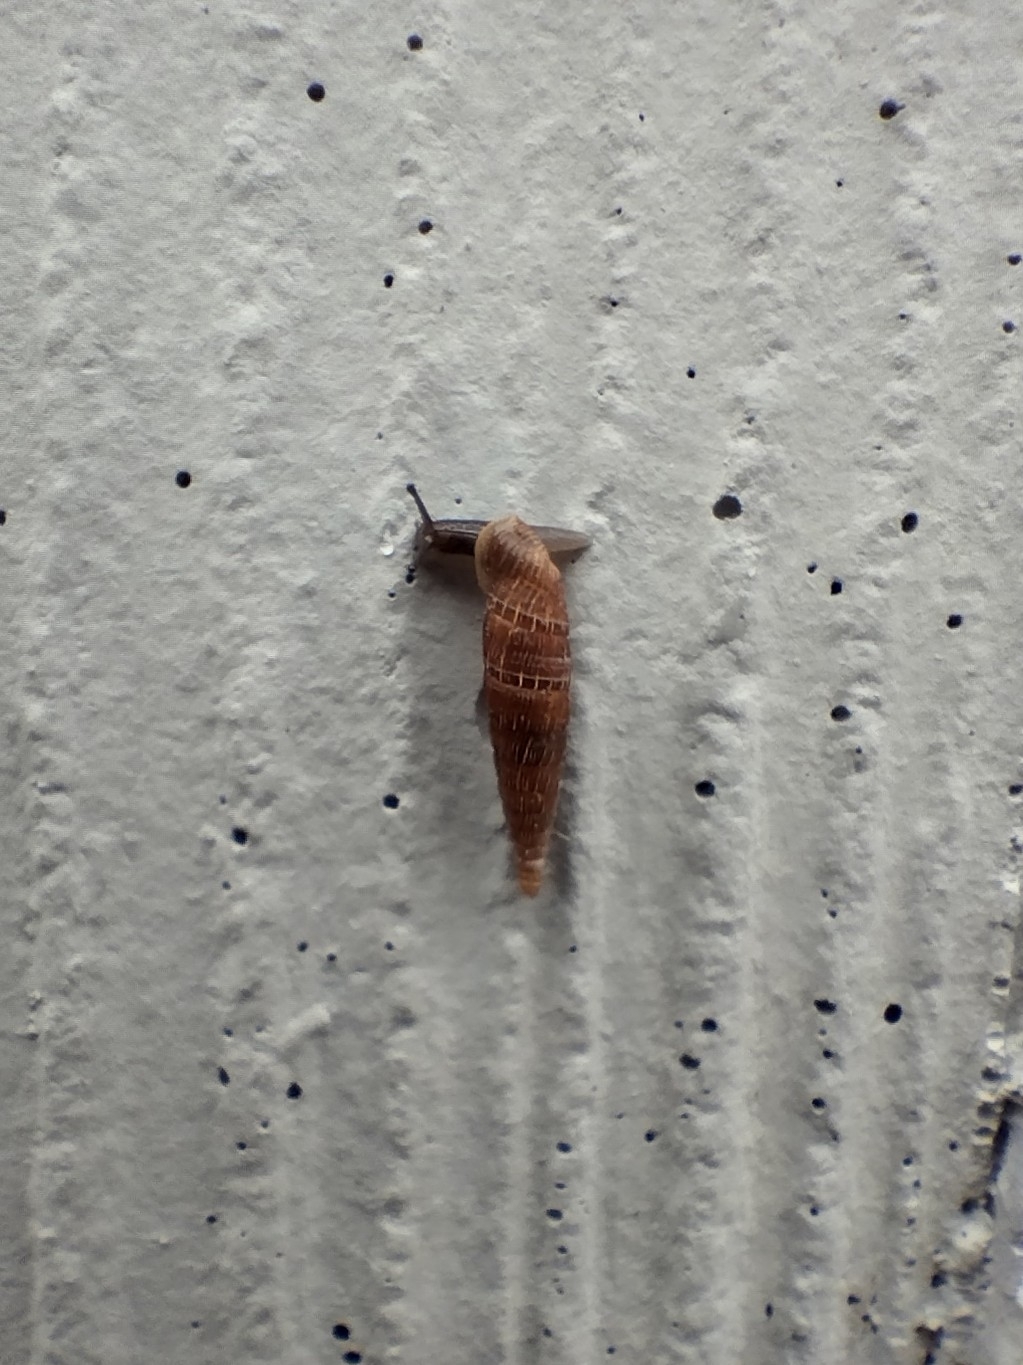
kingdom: Animalia
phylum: Mollusca
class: Gastropoda
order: Stylommatophora
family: Clausiliidae
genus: Alinda
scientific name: Alinda biplicata
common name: Thames door snail
